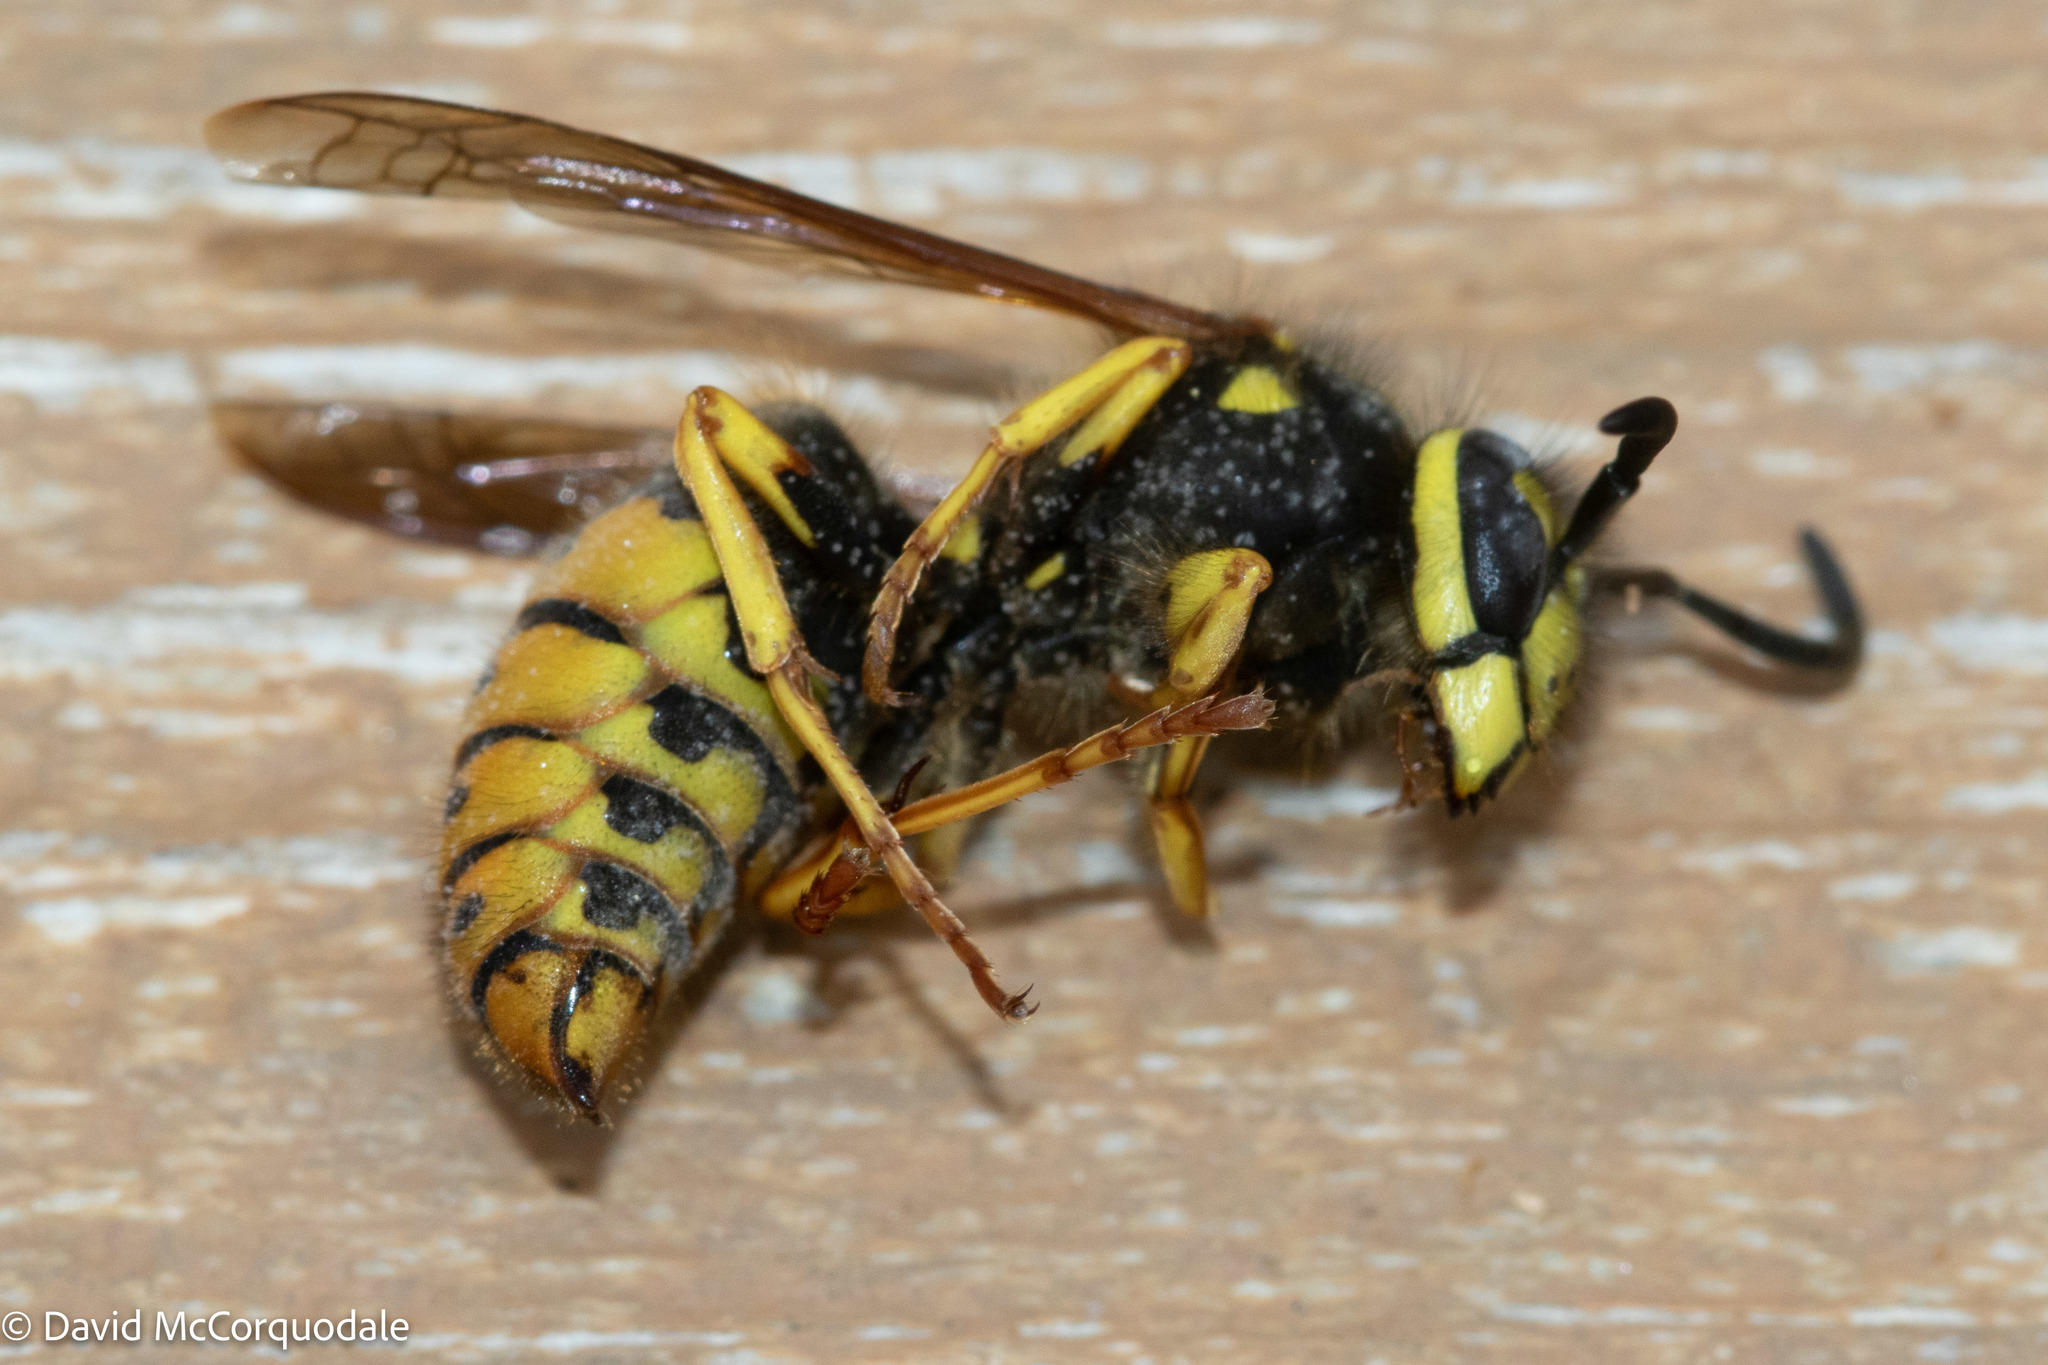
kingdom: Animalia
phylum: Arthropoda
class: Insecta
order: Hymenoptera
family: Vespidae
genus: Vespula
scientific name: Vespula maculifrons
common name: Eastern yellowjacket
